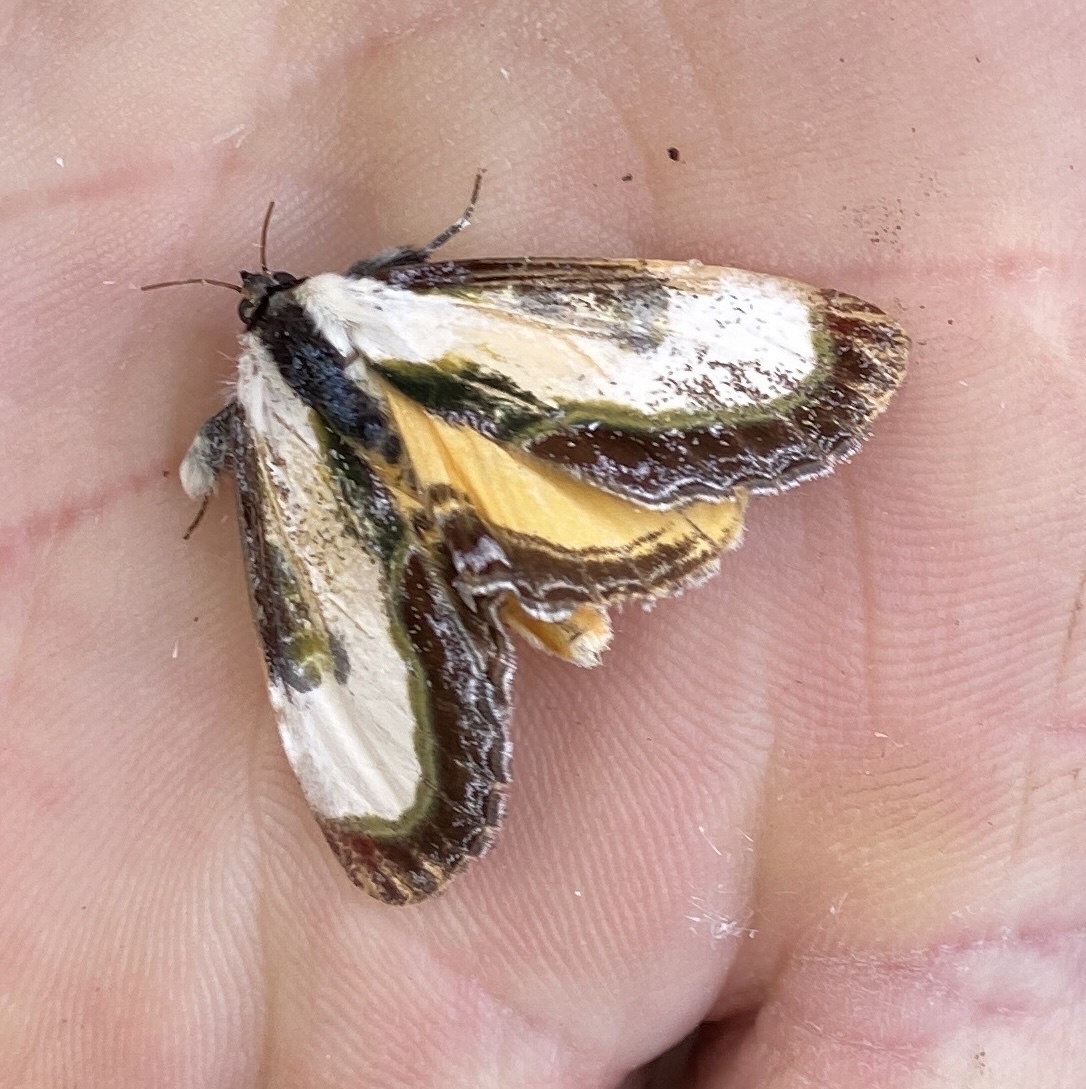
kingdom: Animalia
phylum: Arthropoda
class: Insecta
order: Lepidoptera
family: Noctuidae
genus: Eudryas
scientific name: Eudryas grata
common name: Beautiful wood-nymph
